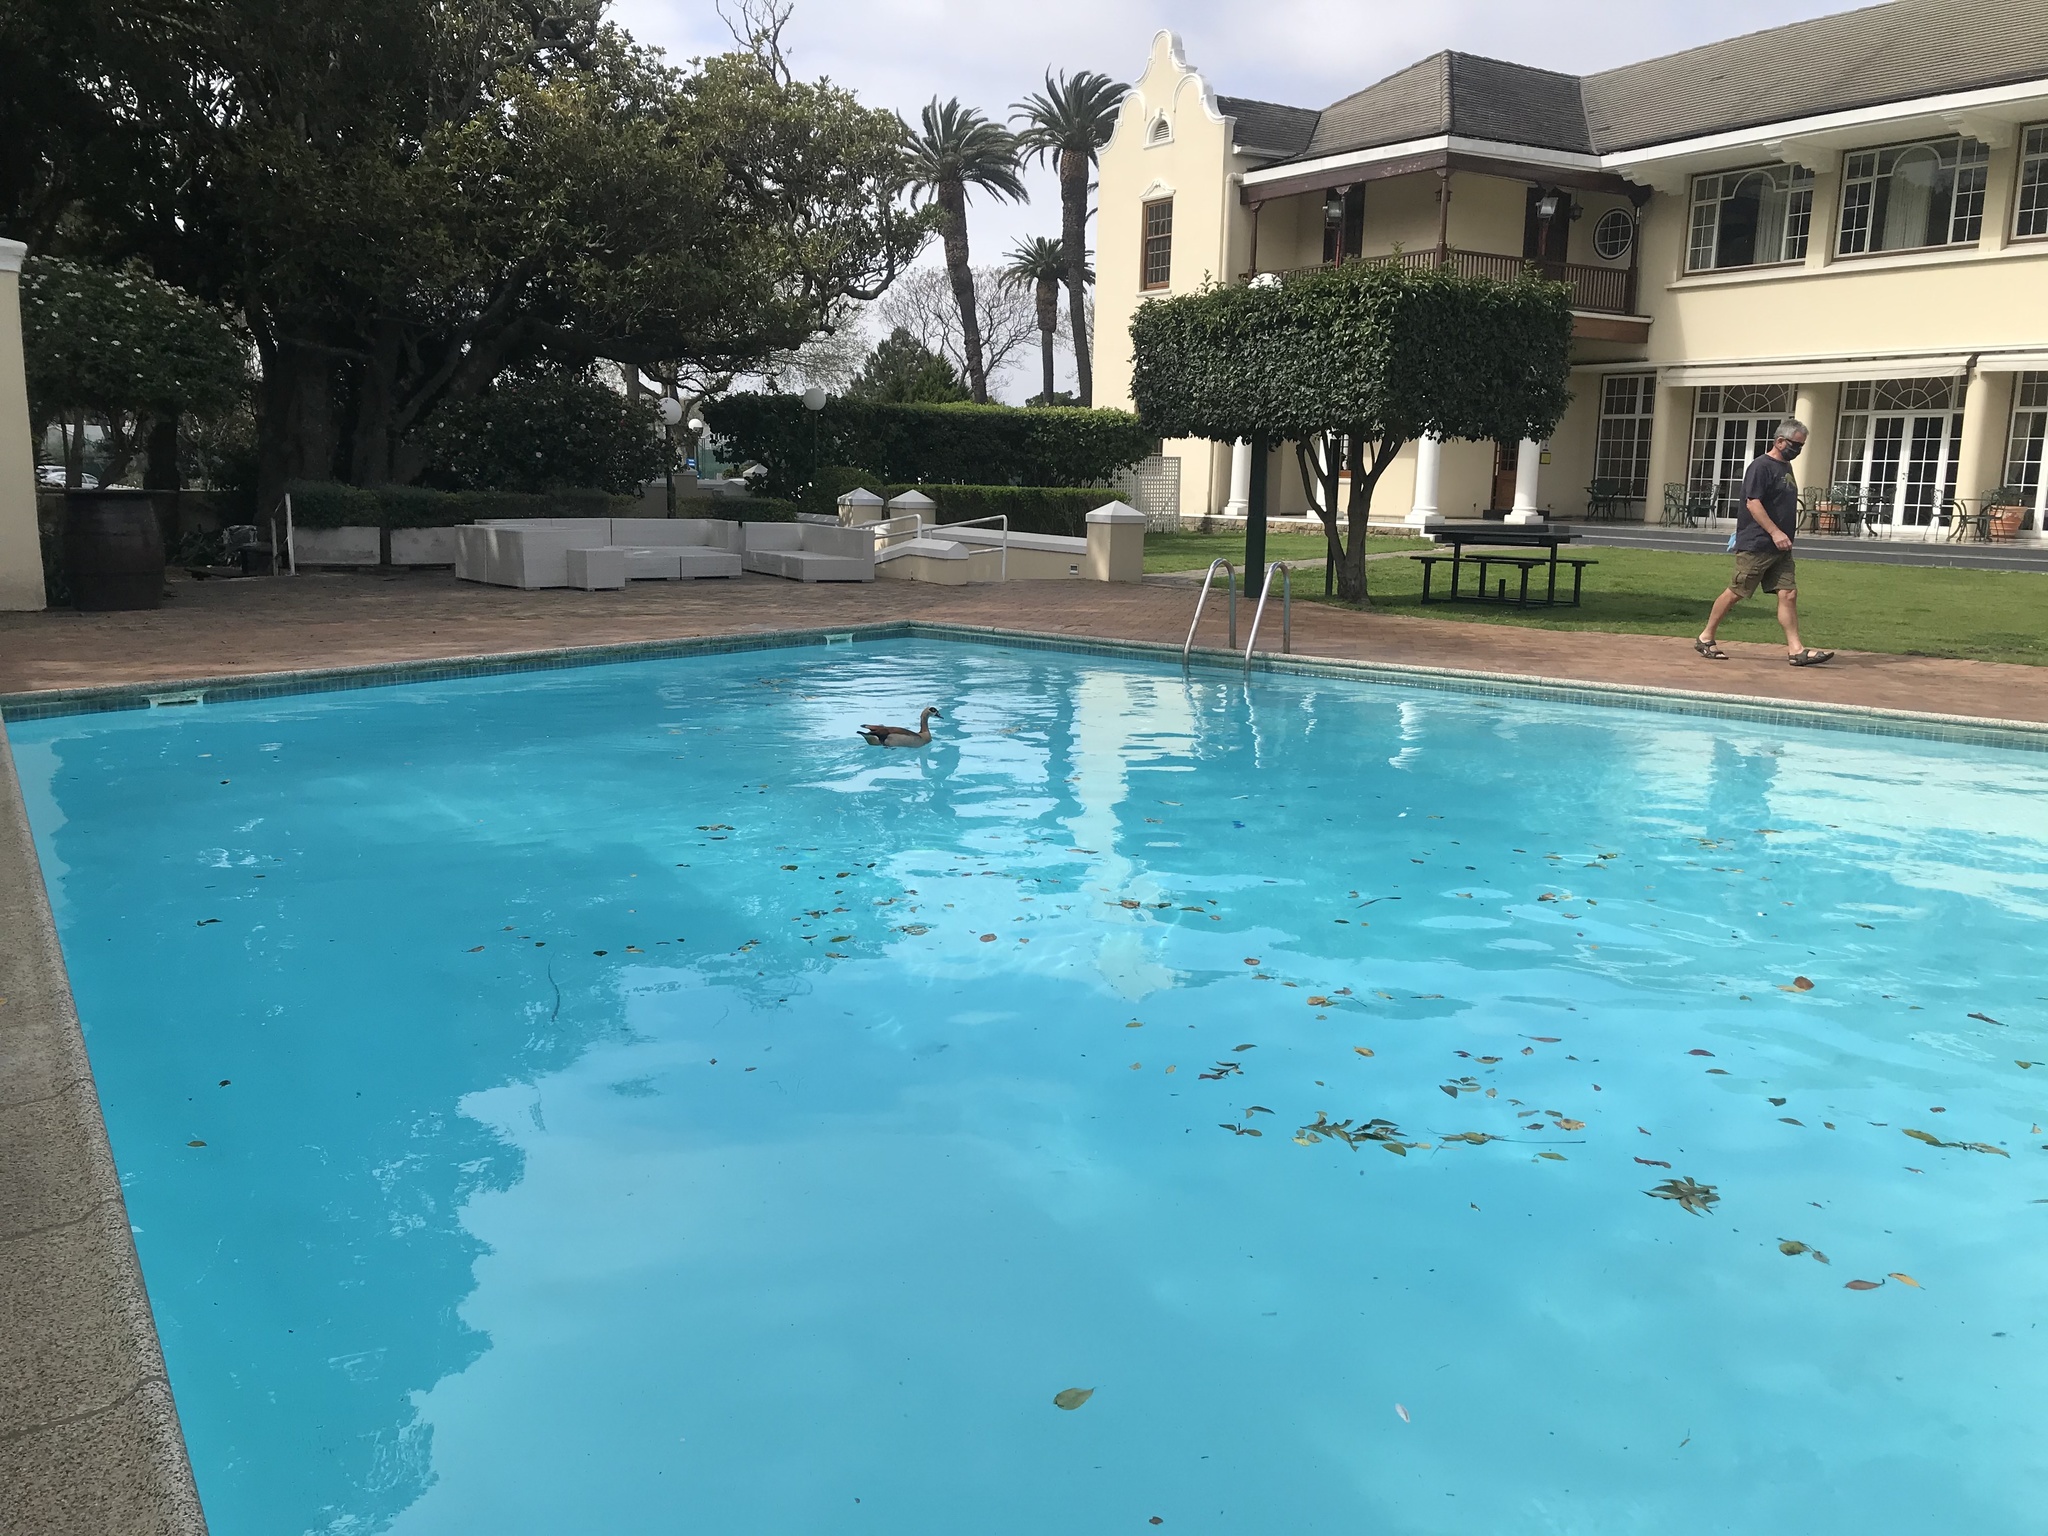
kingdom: Animalia
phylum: Chordata
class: Aves
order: Anseriformes
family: Anatidae
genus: Alopochen
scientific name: Alopochen aegyptiaca
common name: Egyptian goose
